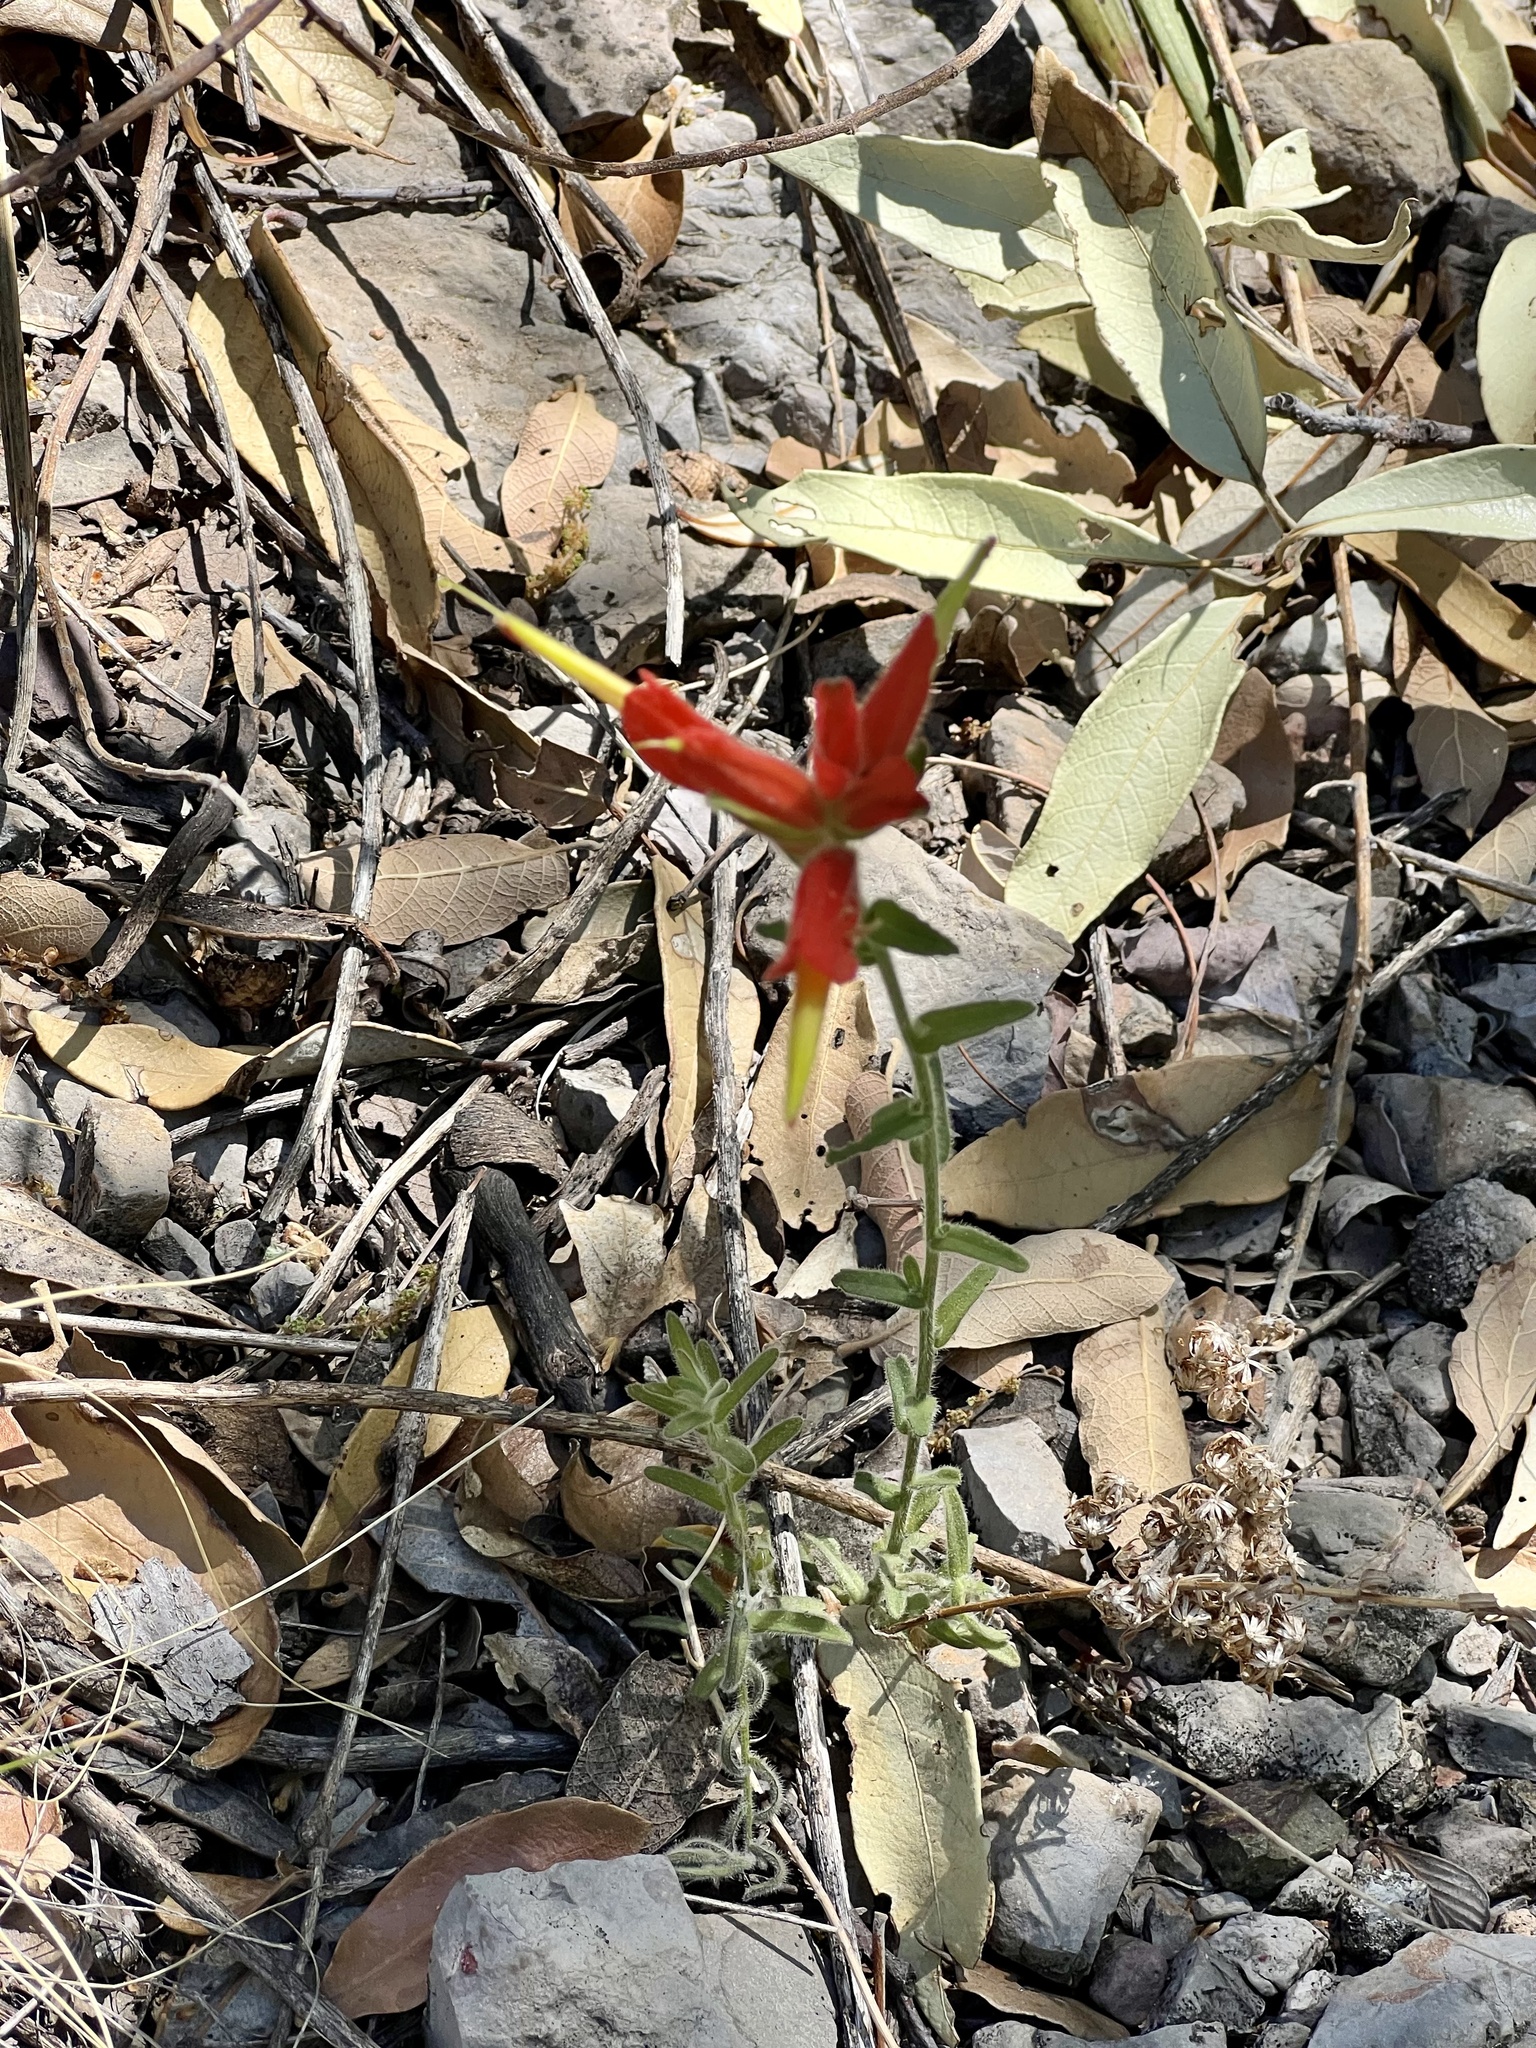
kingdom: Plantae
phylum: Tracheophyta
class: Magnoliopsida
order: Lamiales
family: Orobanchaceae
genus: Castilleja
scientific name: Castilleja tenuiflora
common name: Santa catalina indian paintbrush
